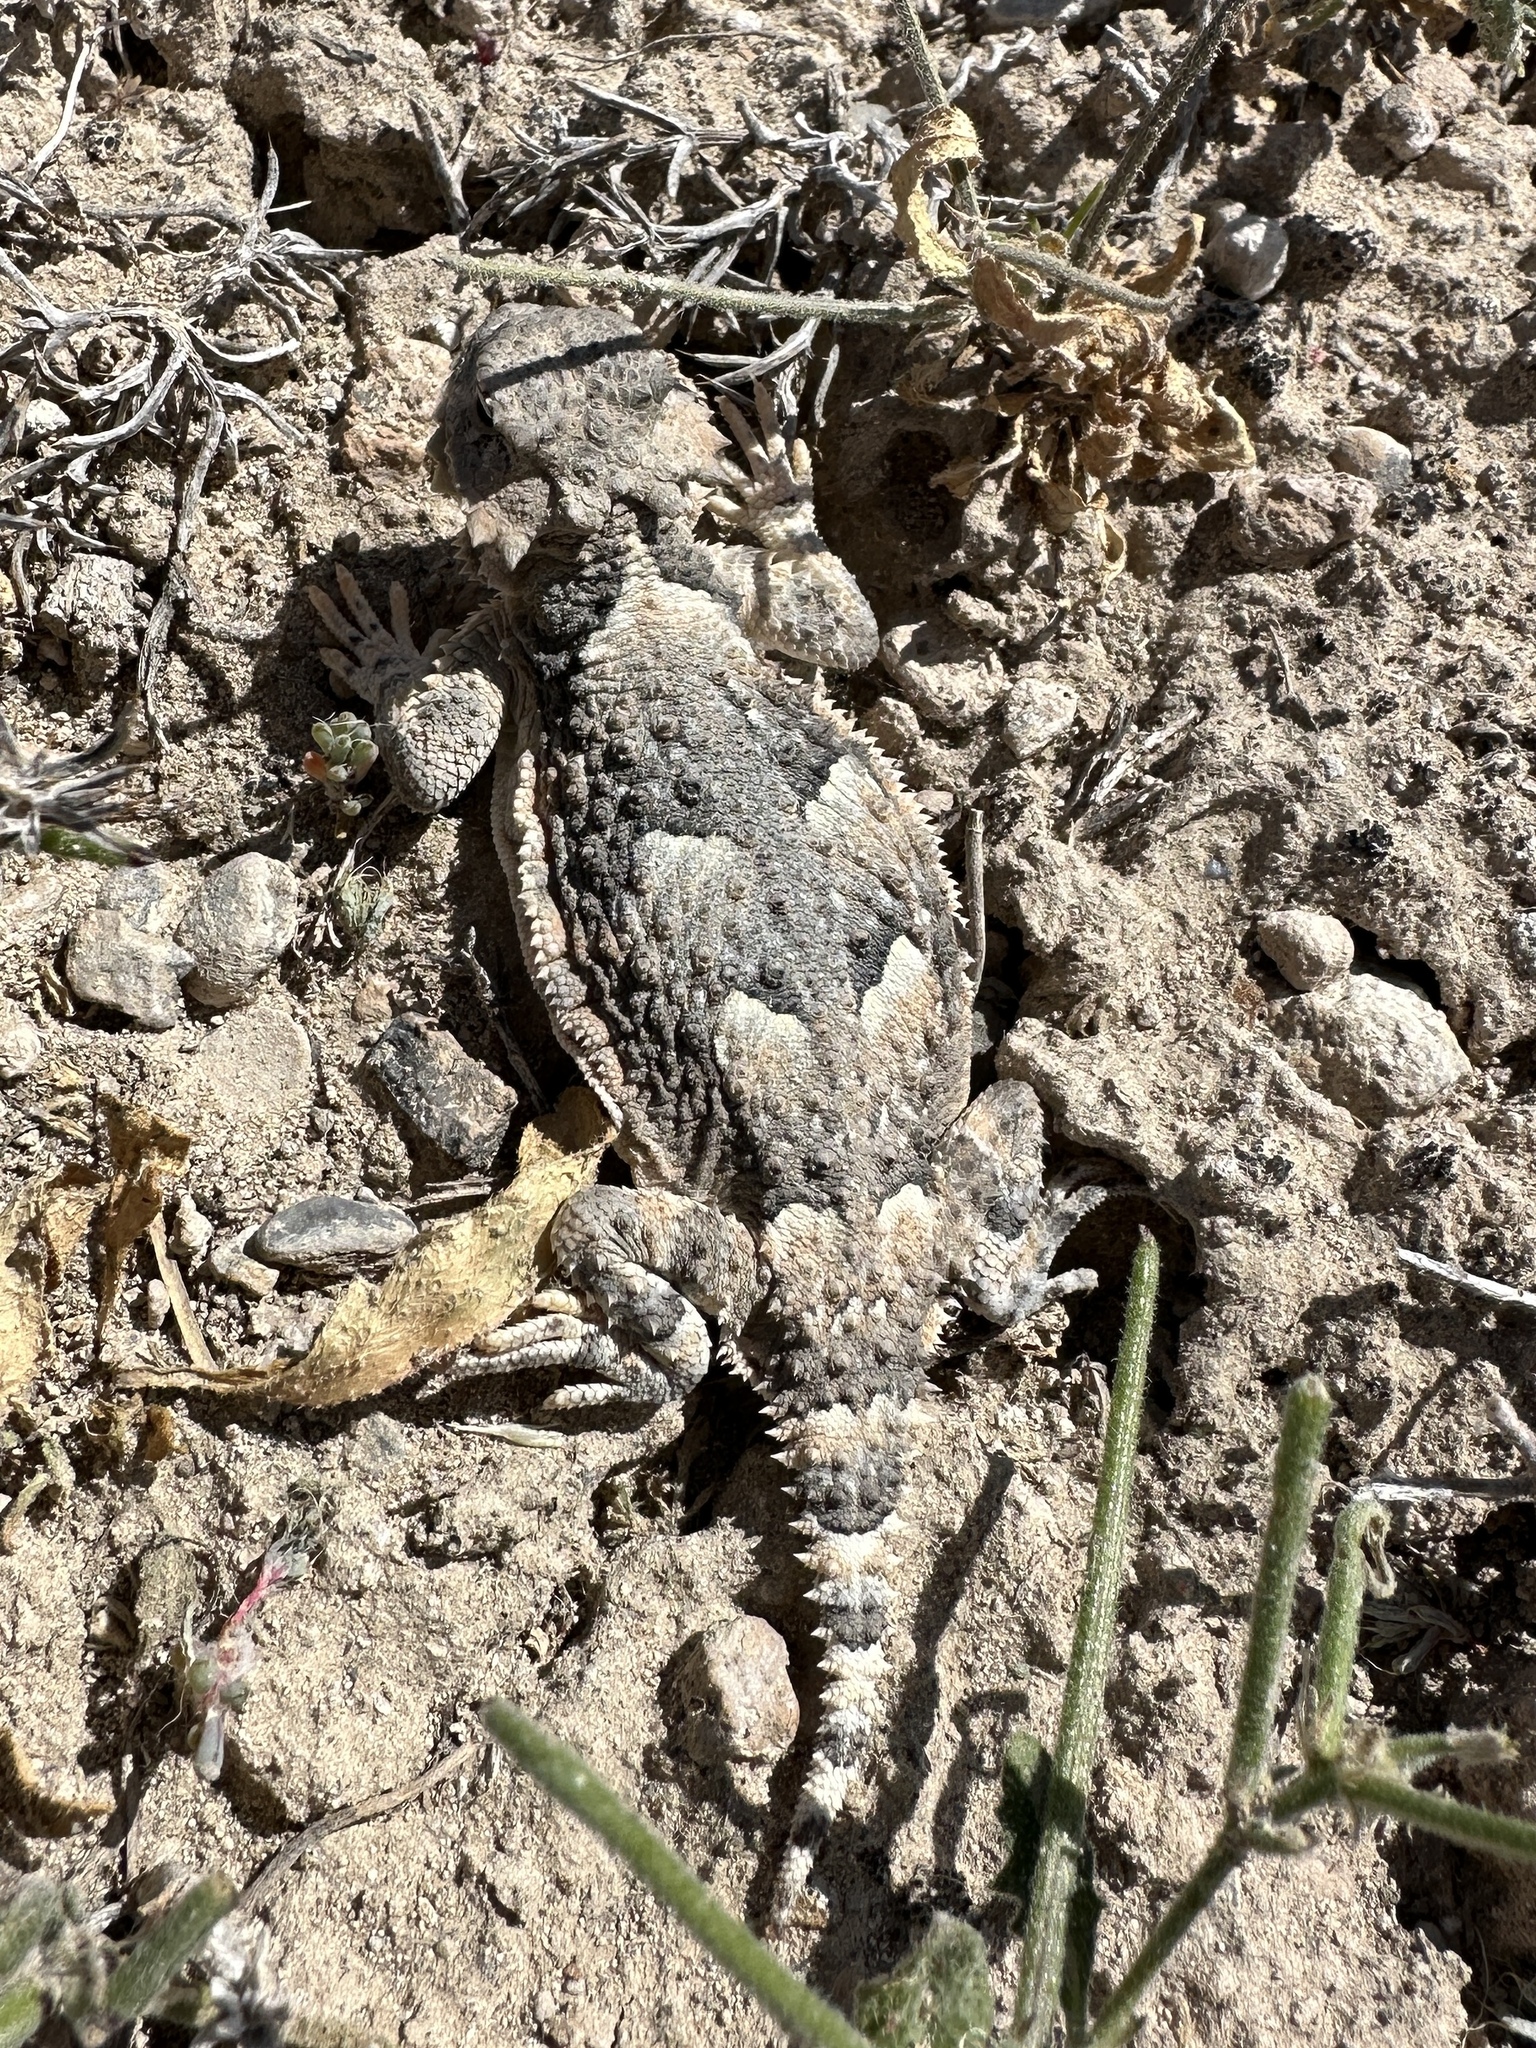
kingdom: Animalia
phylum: Chordata
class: Squamata
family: Phrynosomatidae
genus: Phrynosoma
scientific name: Phrynosoma platyrhinos
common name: Desert horned lizard
